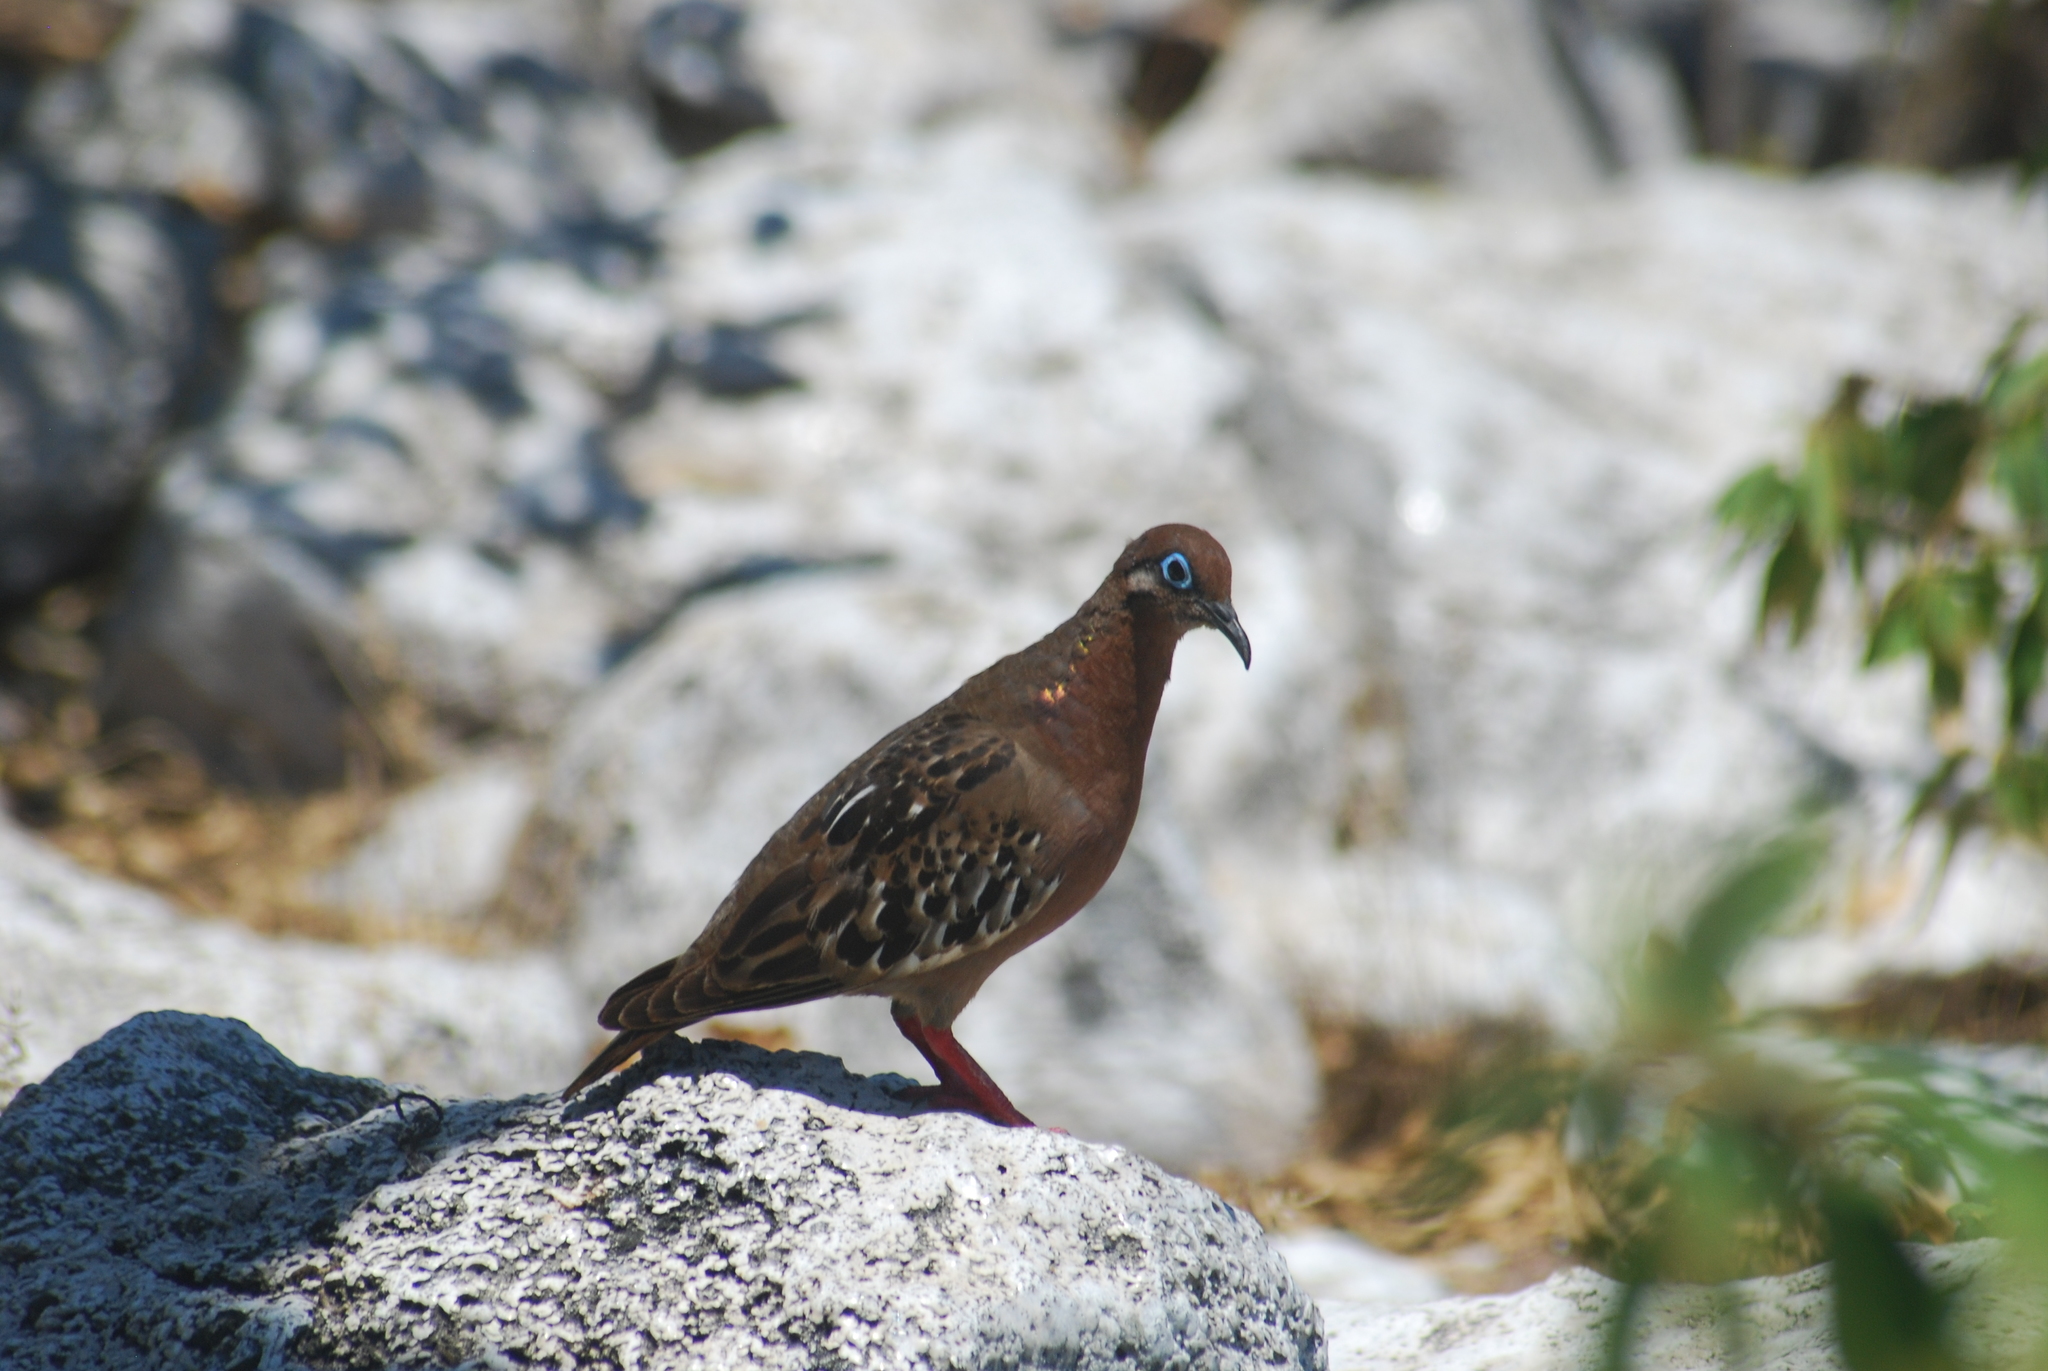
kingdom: Animalia
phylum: Chordata
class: Aves
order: Columbiformes
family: Columbidae
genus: Zenaida
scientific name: Zenaida galapagoensis
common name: Galapagos dove
